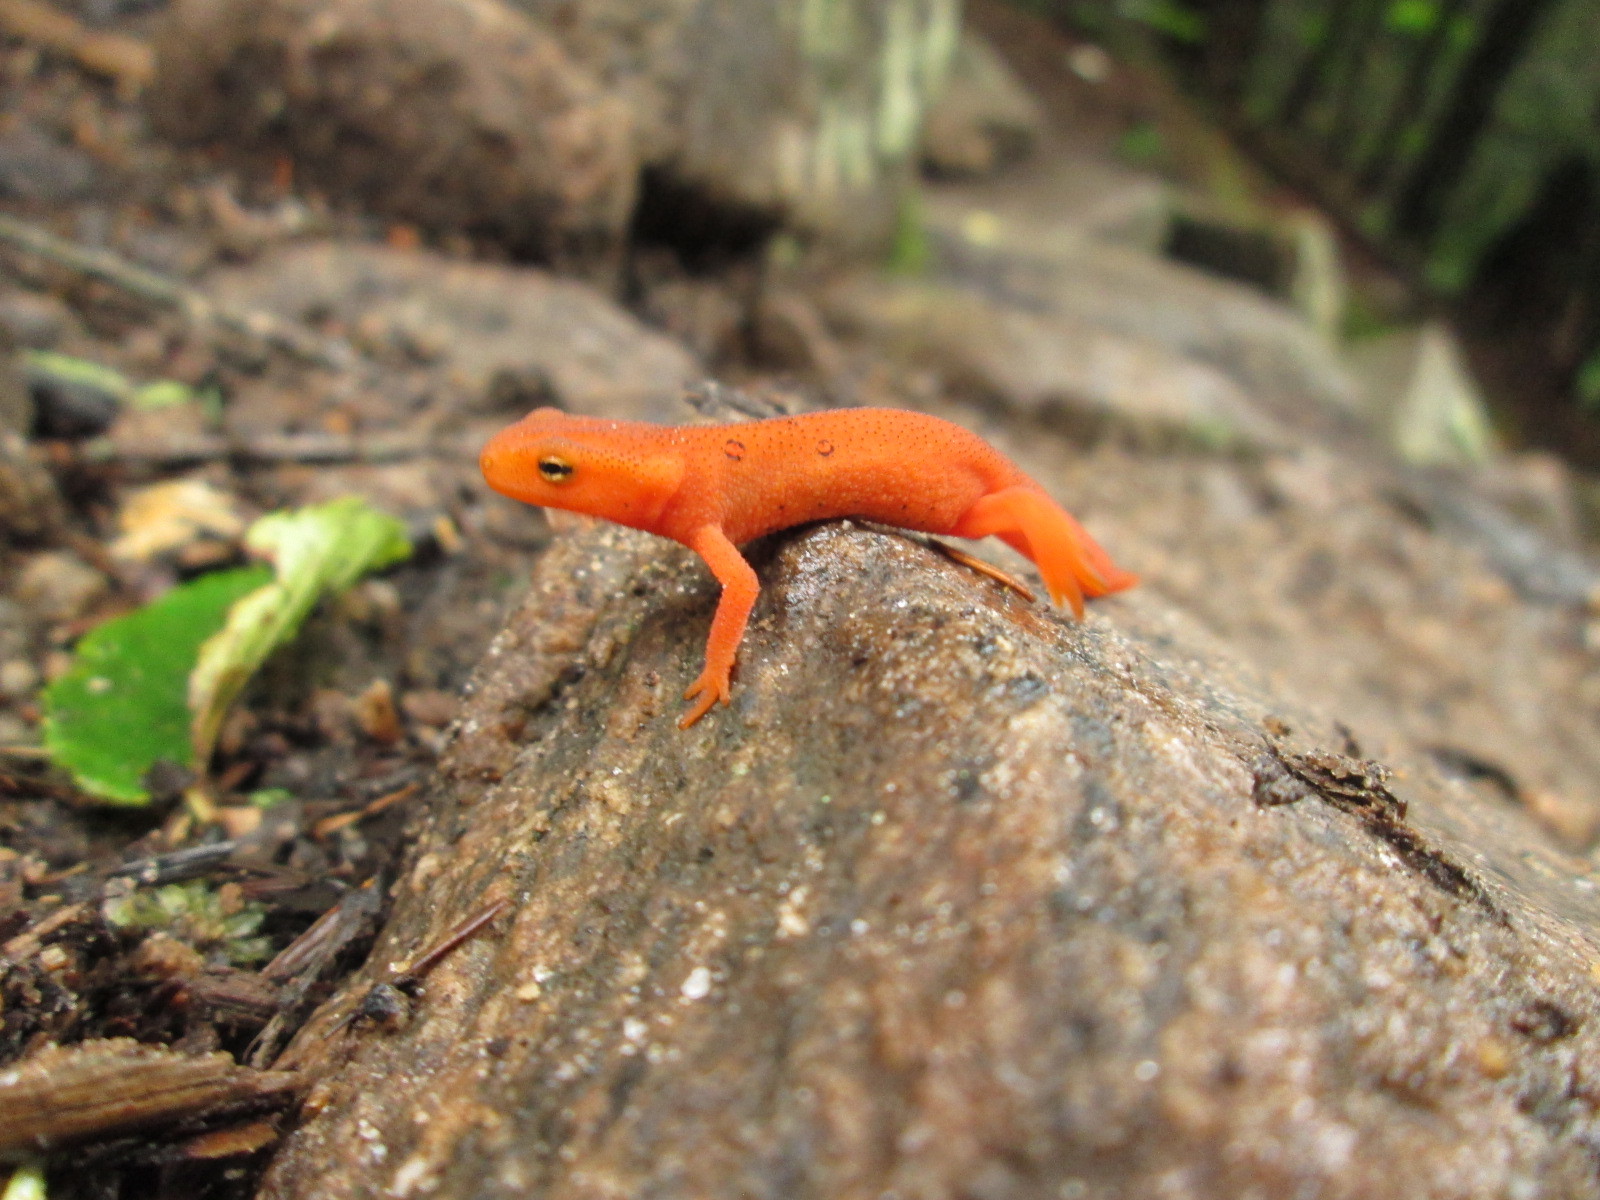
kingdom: Animalia
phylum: Chordata
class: Amphibia
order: Caudata
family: Salamandridae
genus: Notophthalmus
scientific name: Notophthalmus viridescens
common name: Eastern newt
